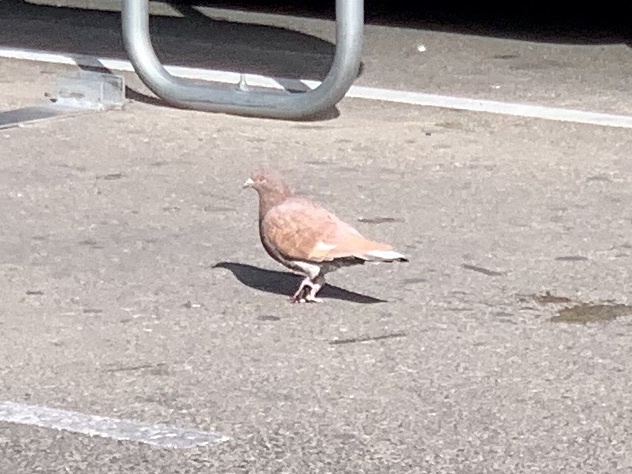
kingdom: Animalia
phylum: Chordata
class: Aves
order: Columbiformes
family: Columbidae
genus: Columba
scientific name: Columba livia
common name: Rock pigeon
